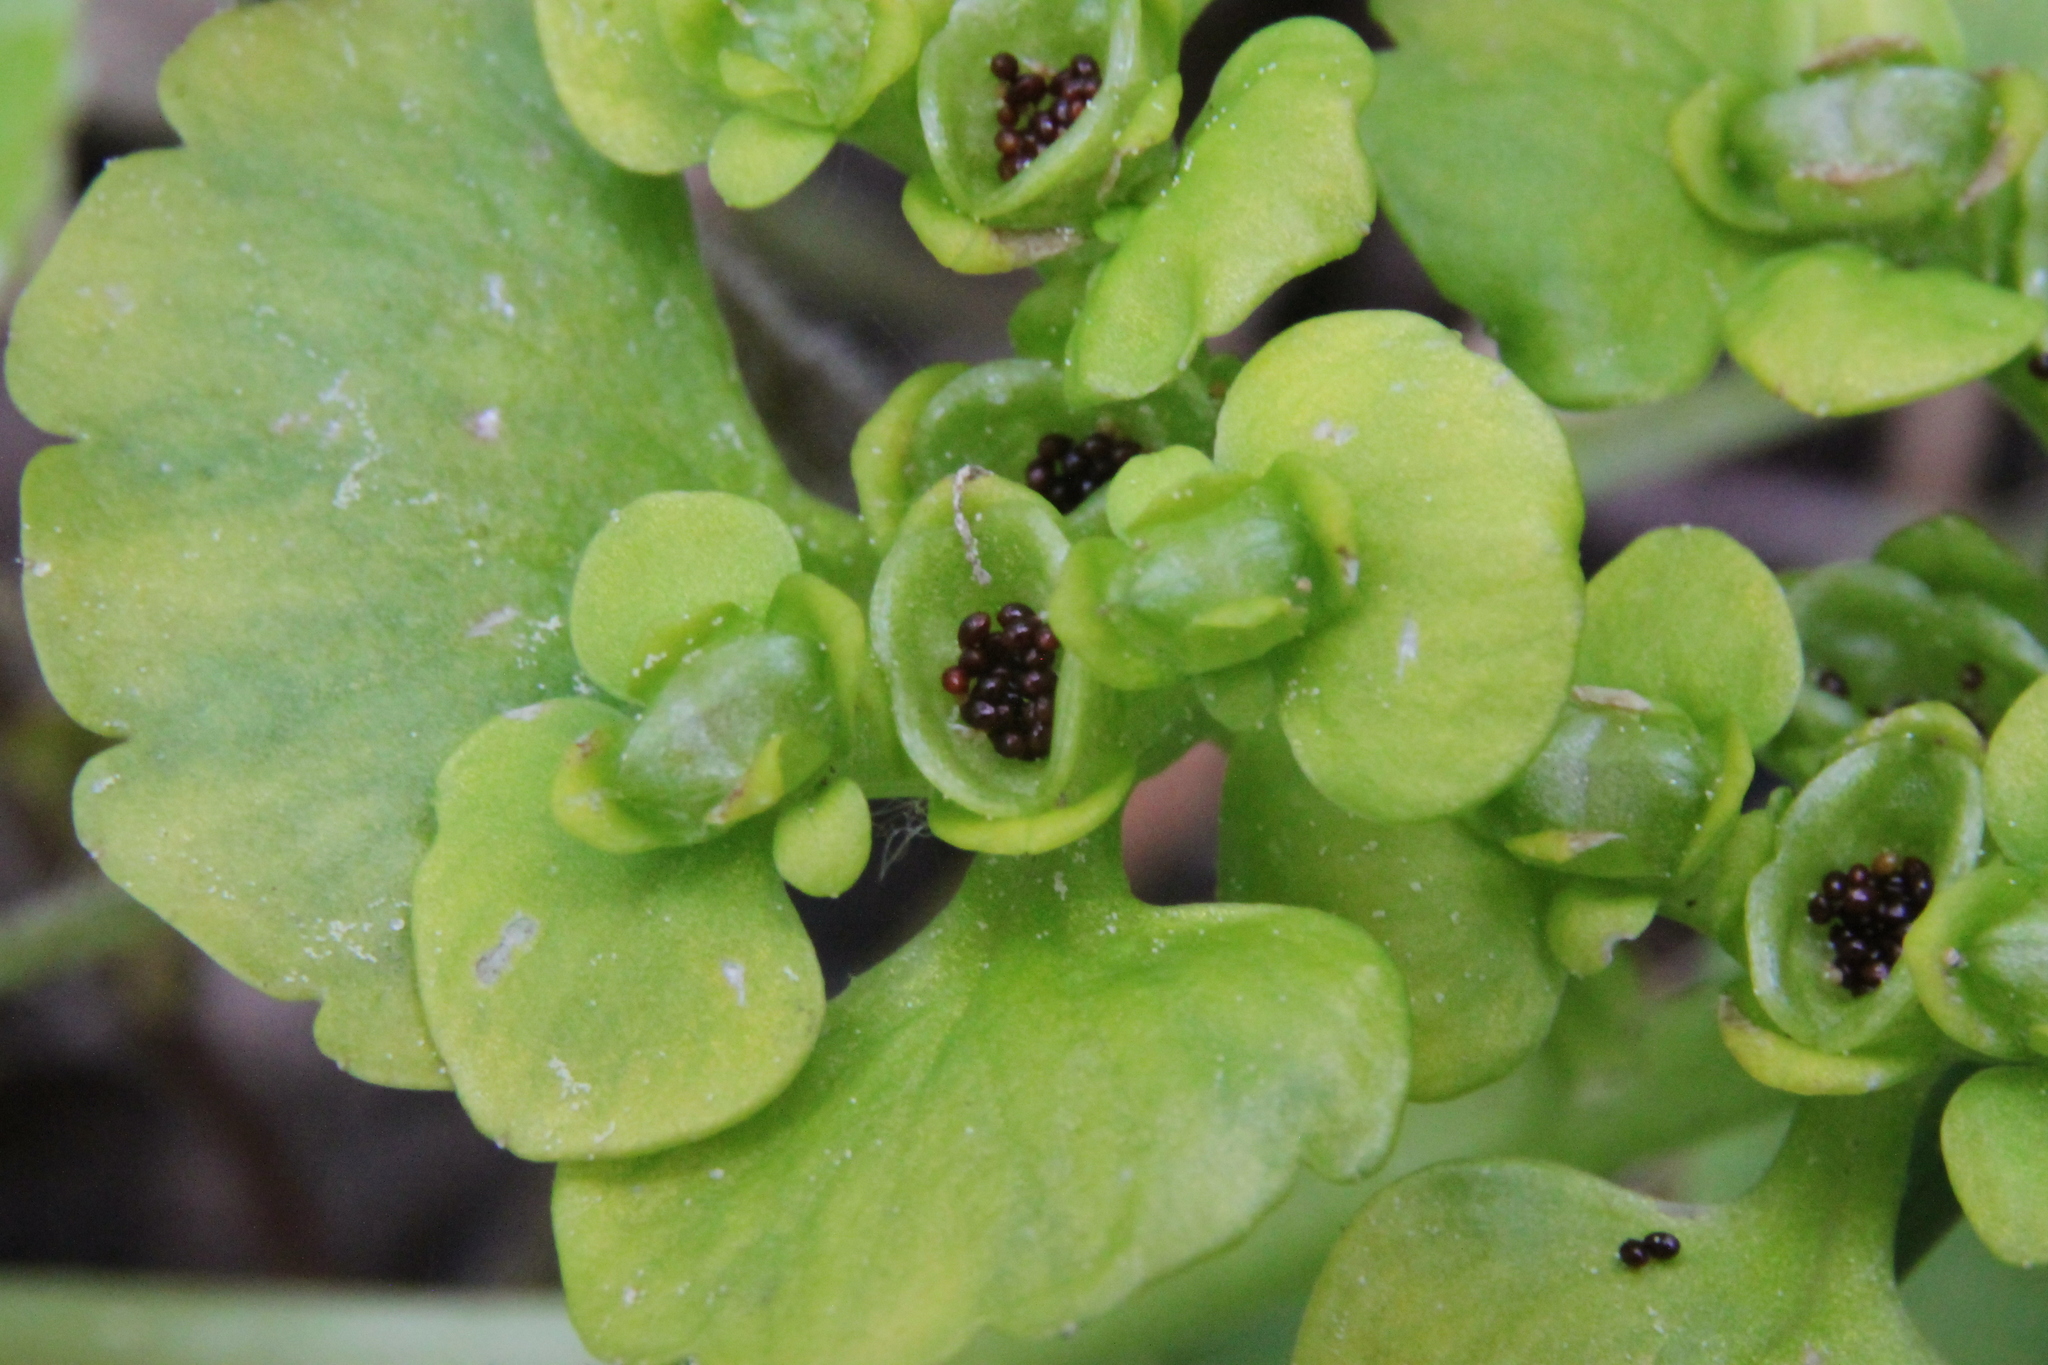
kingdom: Plantae
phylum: Tracheophyta
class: Magnoliopsida
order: Saxifragales
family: Saxifragaceae
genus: Chrysosplenium
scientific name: Chrysosplenium alternifolium
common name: Alternate-leaved golden-saxifrage
